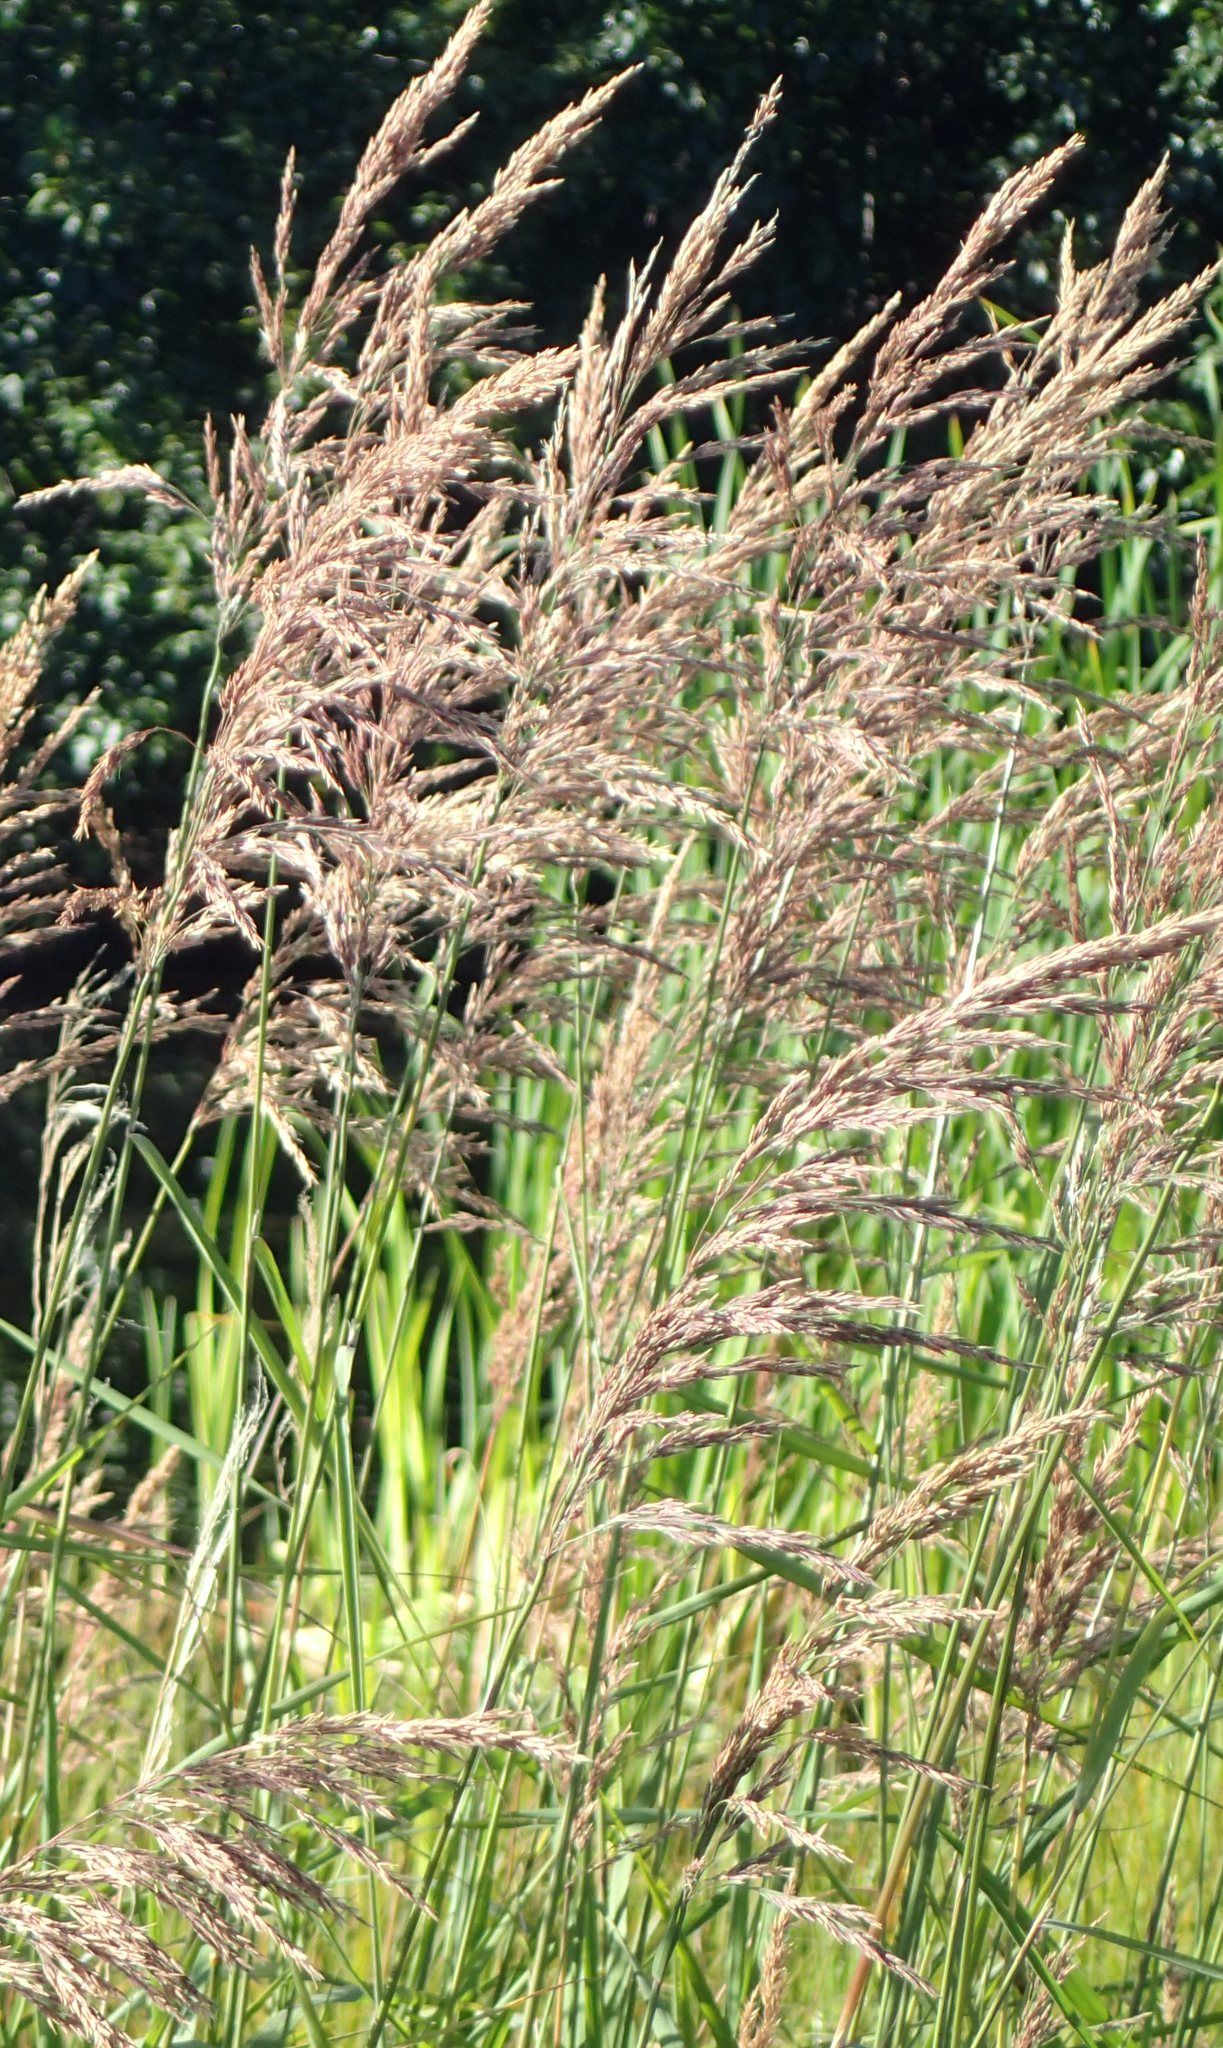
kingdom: Plantae
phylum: Tracheophyta
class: Liliopsida
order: Poales
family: Poaceae
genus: Calamagrostis
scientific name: Calamagrostis canadensis
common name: Canada bluejoint
